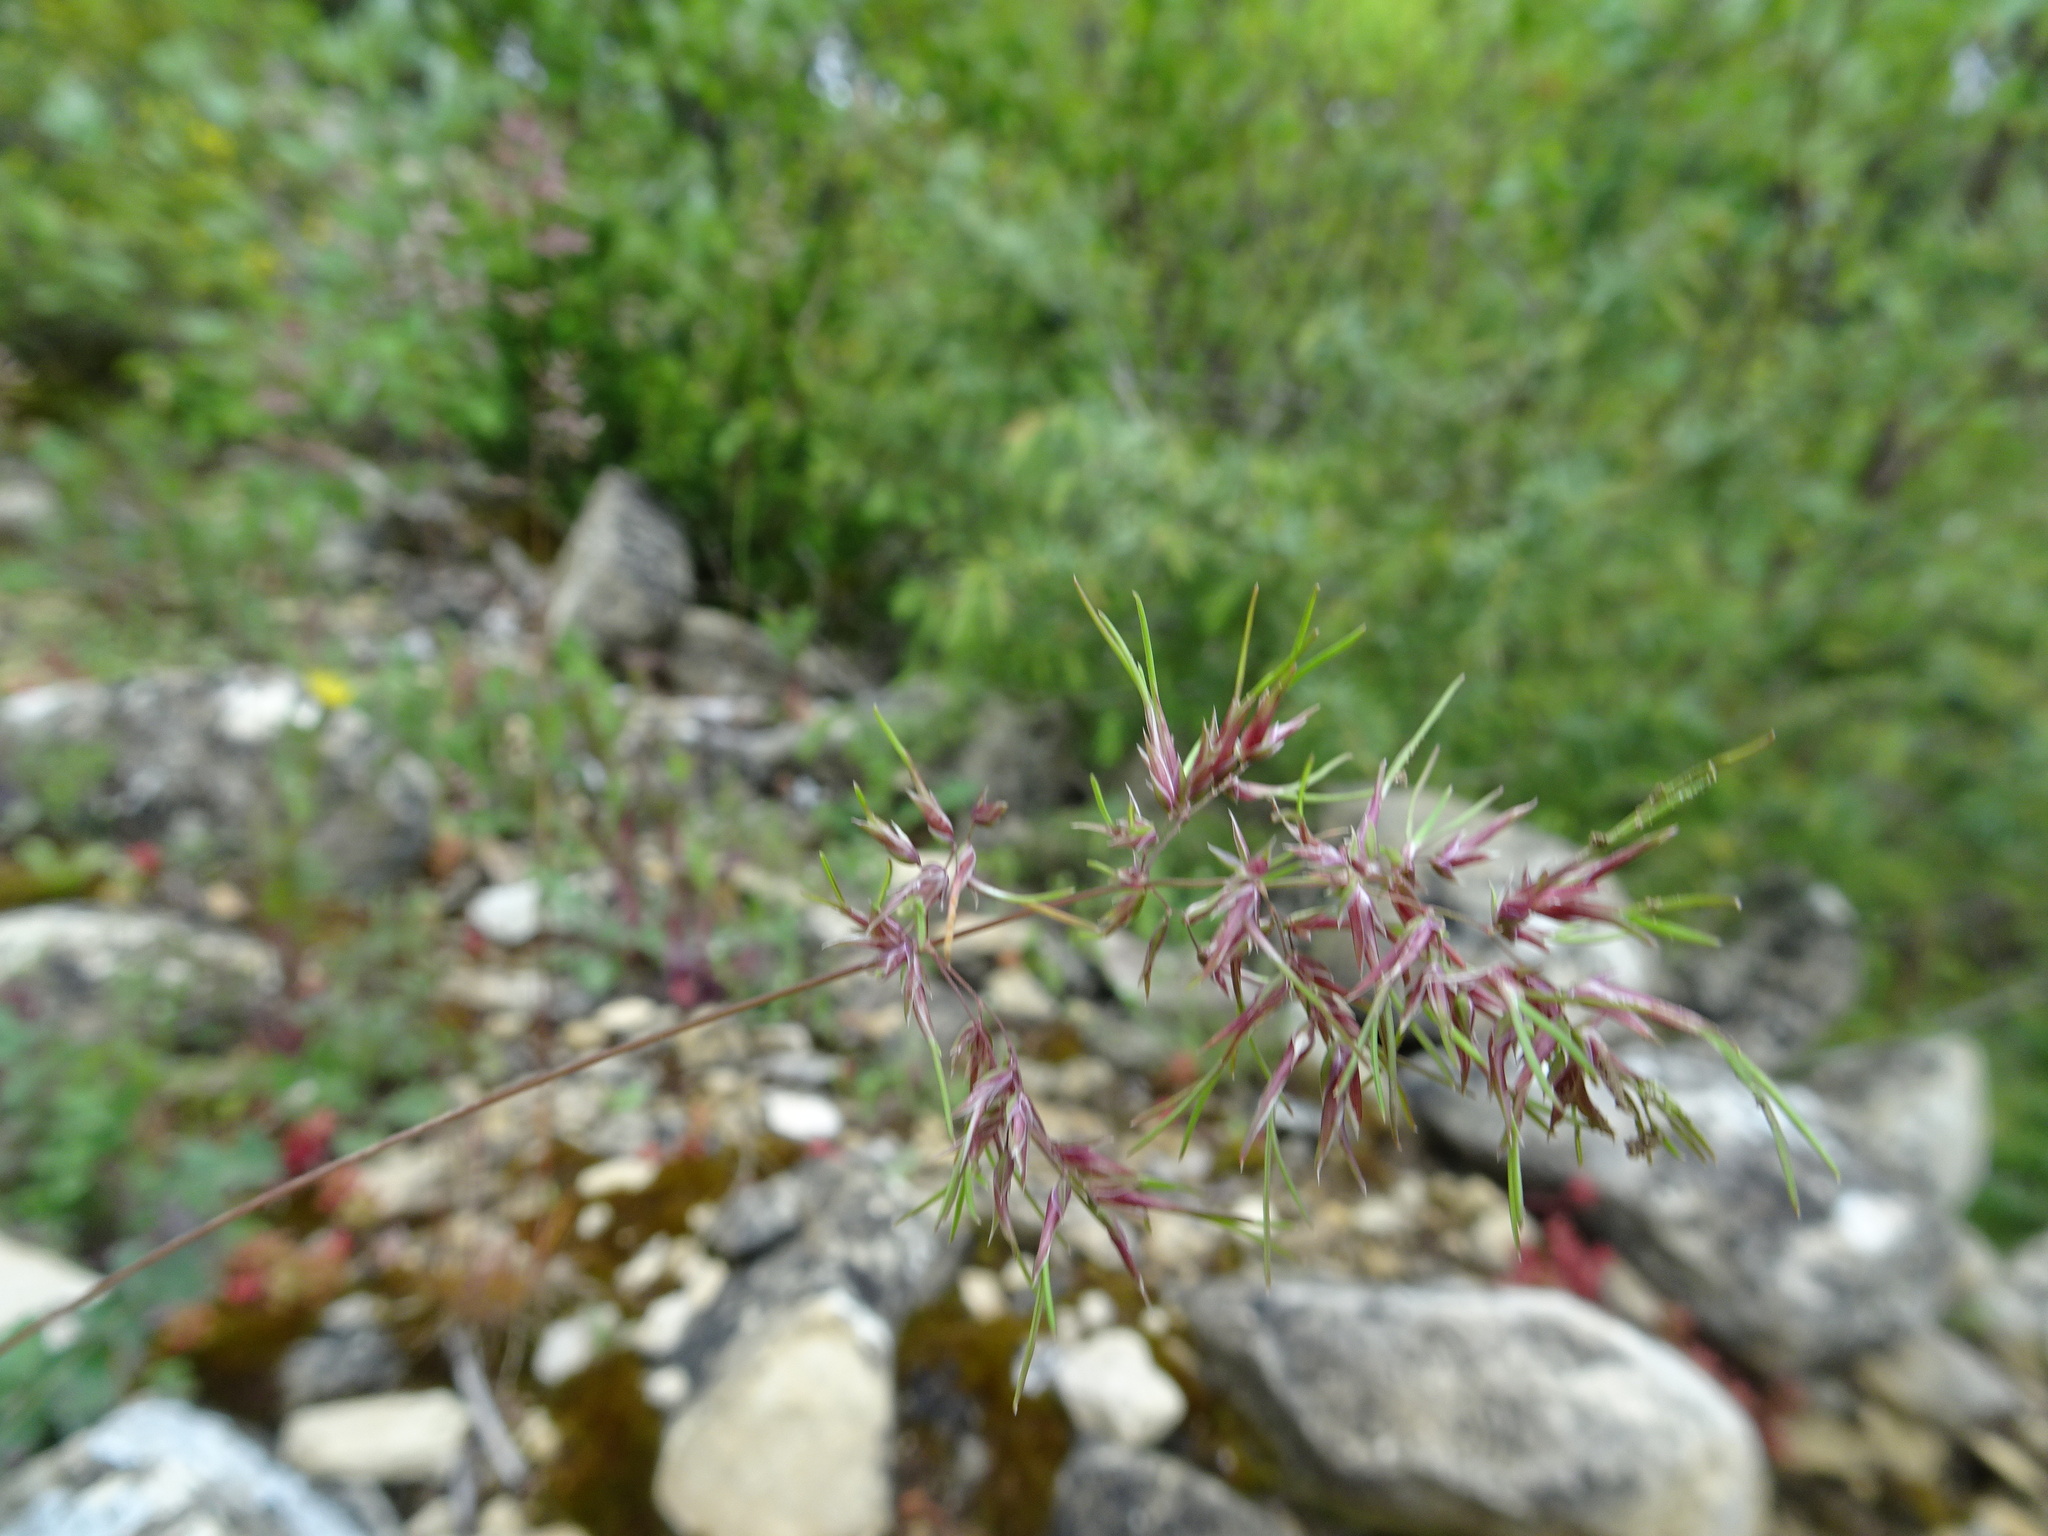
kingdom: Plantae
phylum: Tracheophyta
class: Liliopsida
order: Poales
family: Poaceae
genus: Poa
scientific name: Poa bulbosa
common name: Bulbous bluegrass
